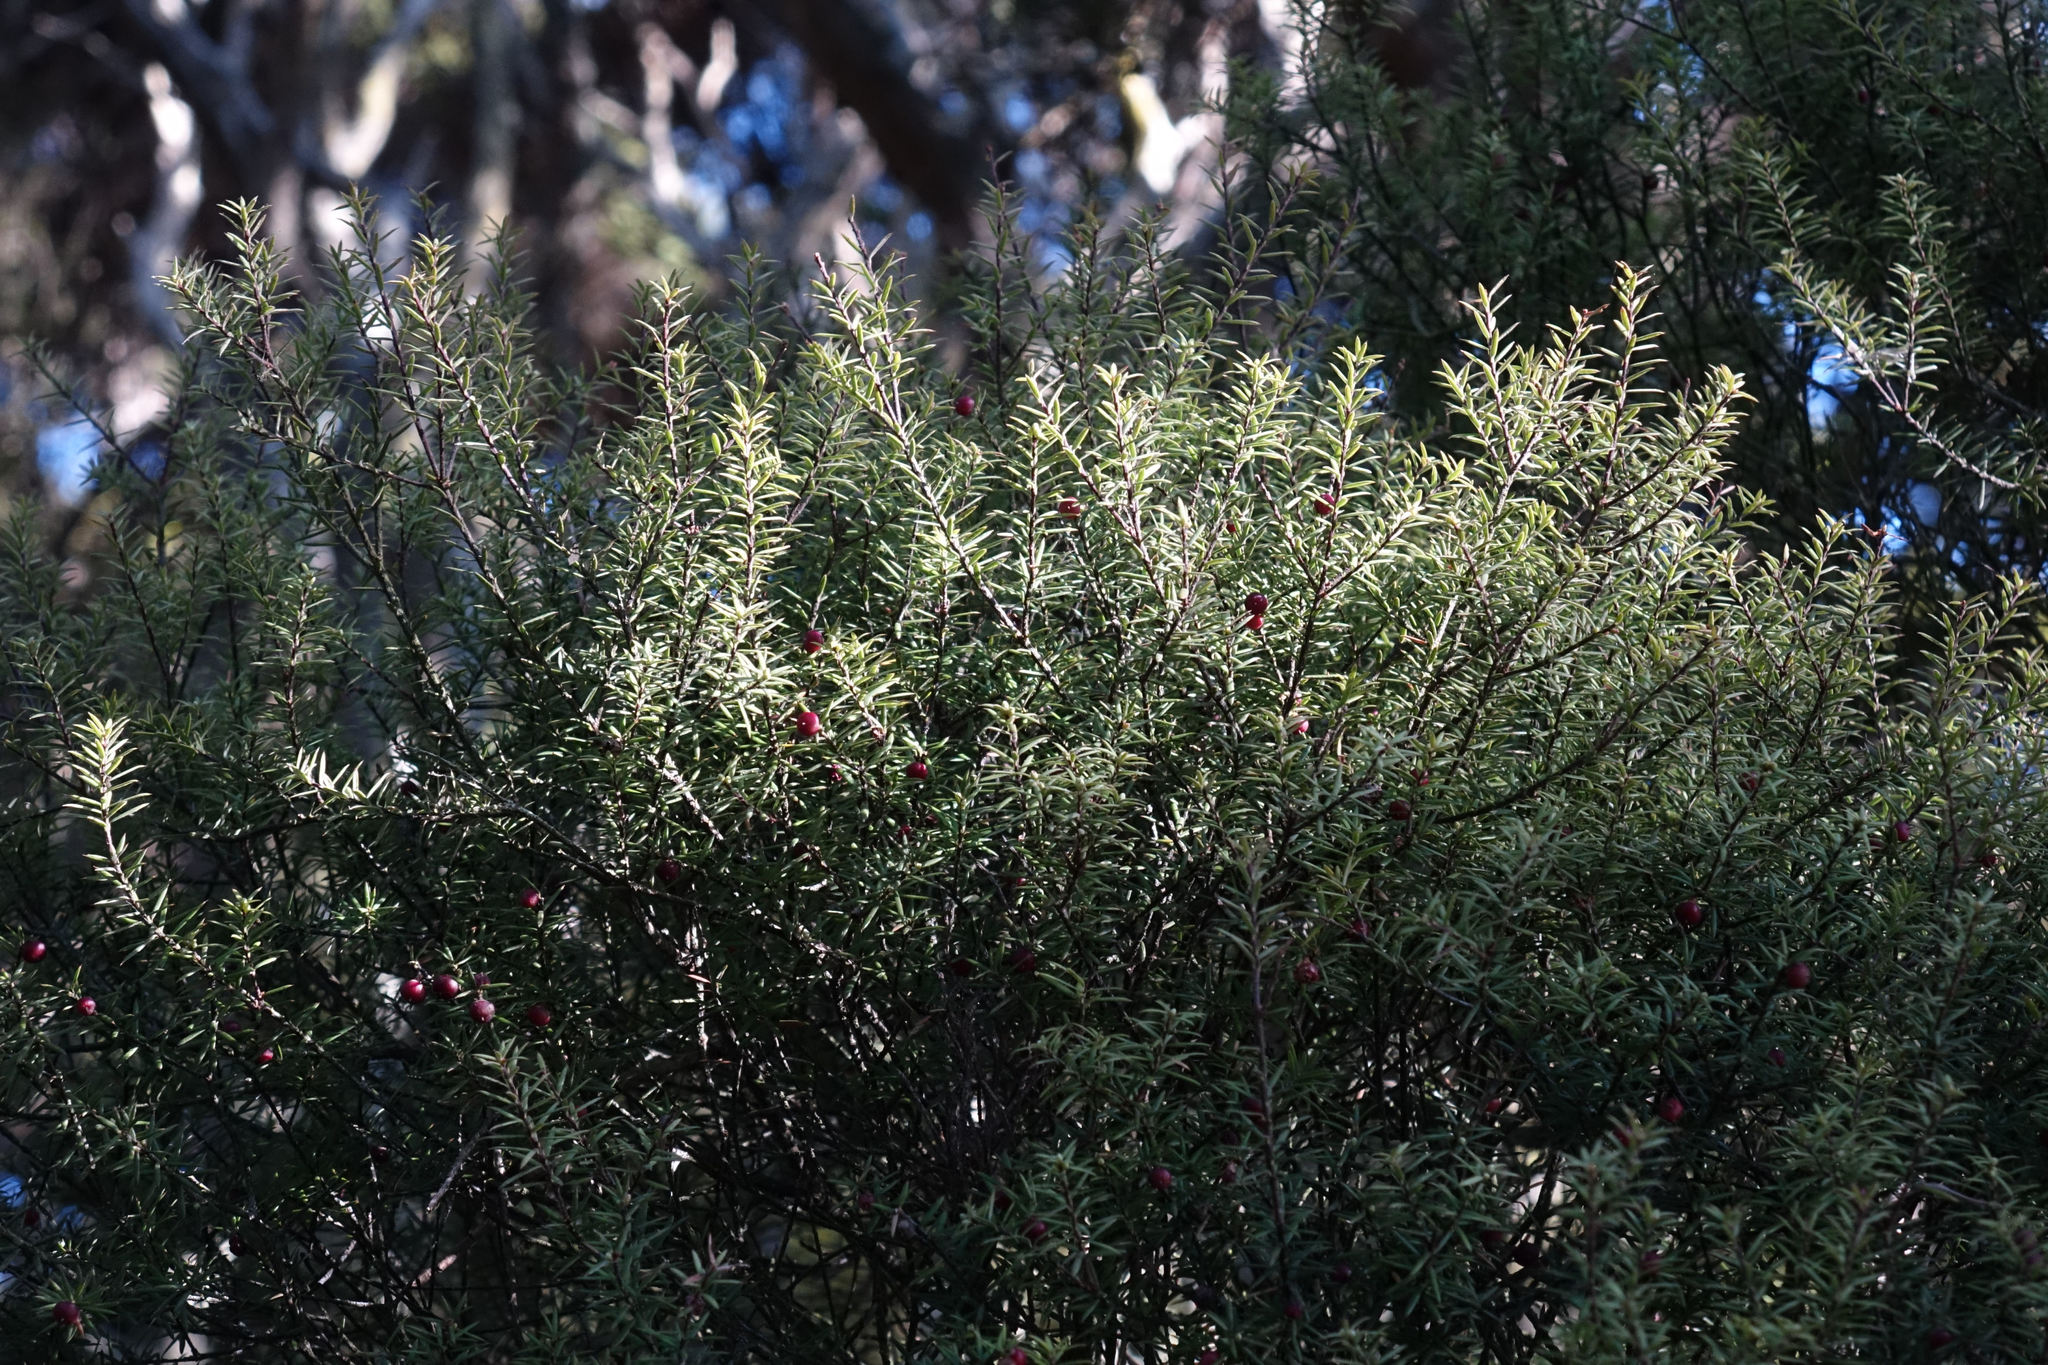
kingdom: Plantae
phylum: Tracheophyta
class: Magnoliopsida
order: Ericales
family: Ericaceae
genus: Leptecophylla
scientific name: Leptecophylla juniperina
